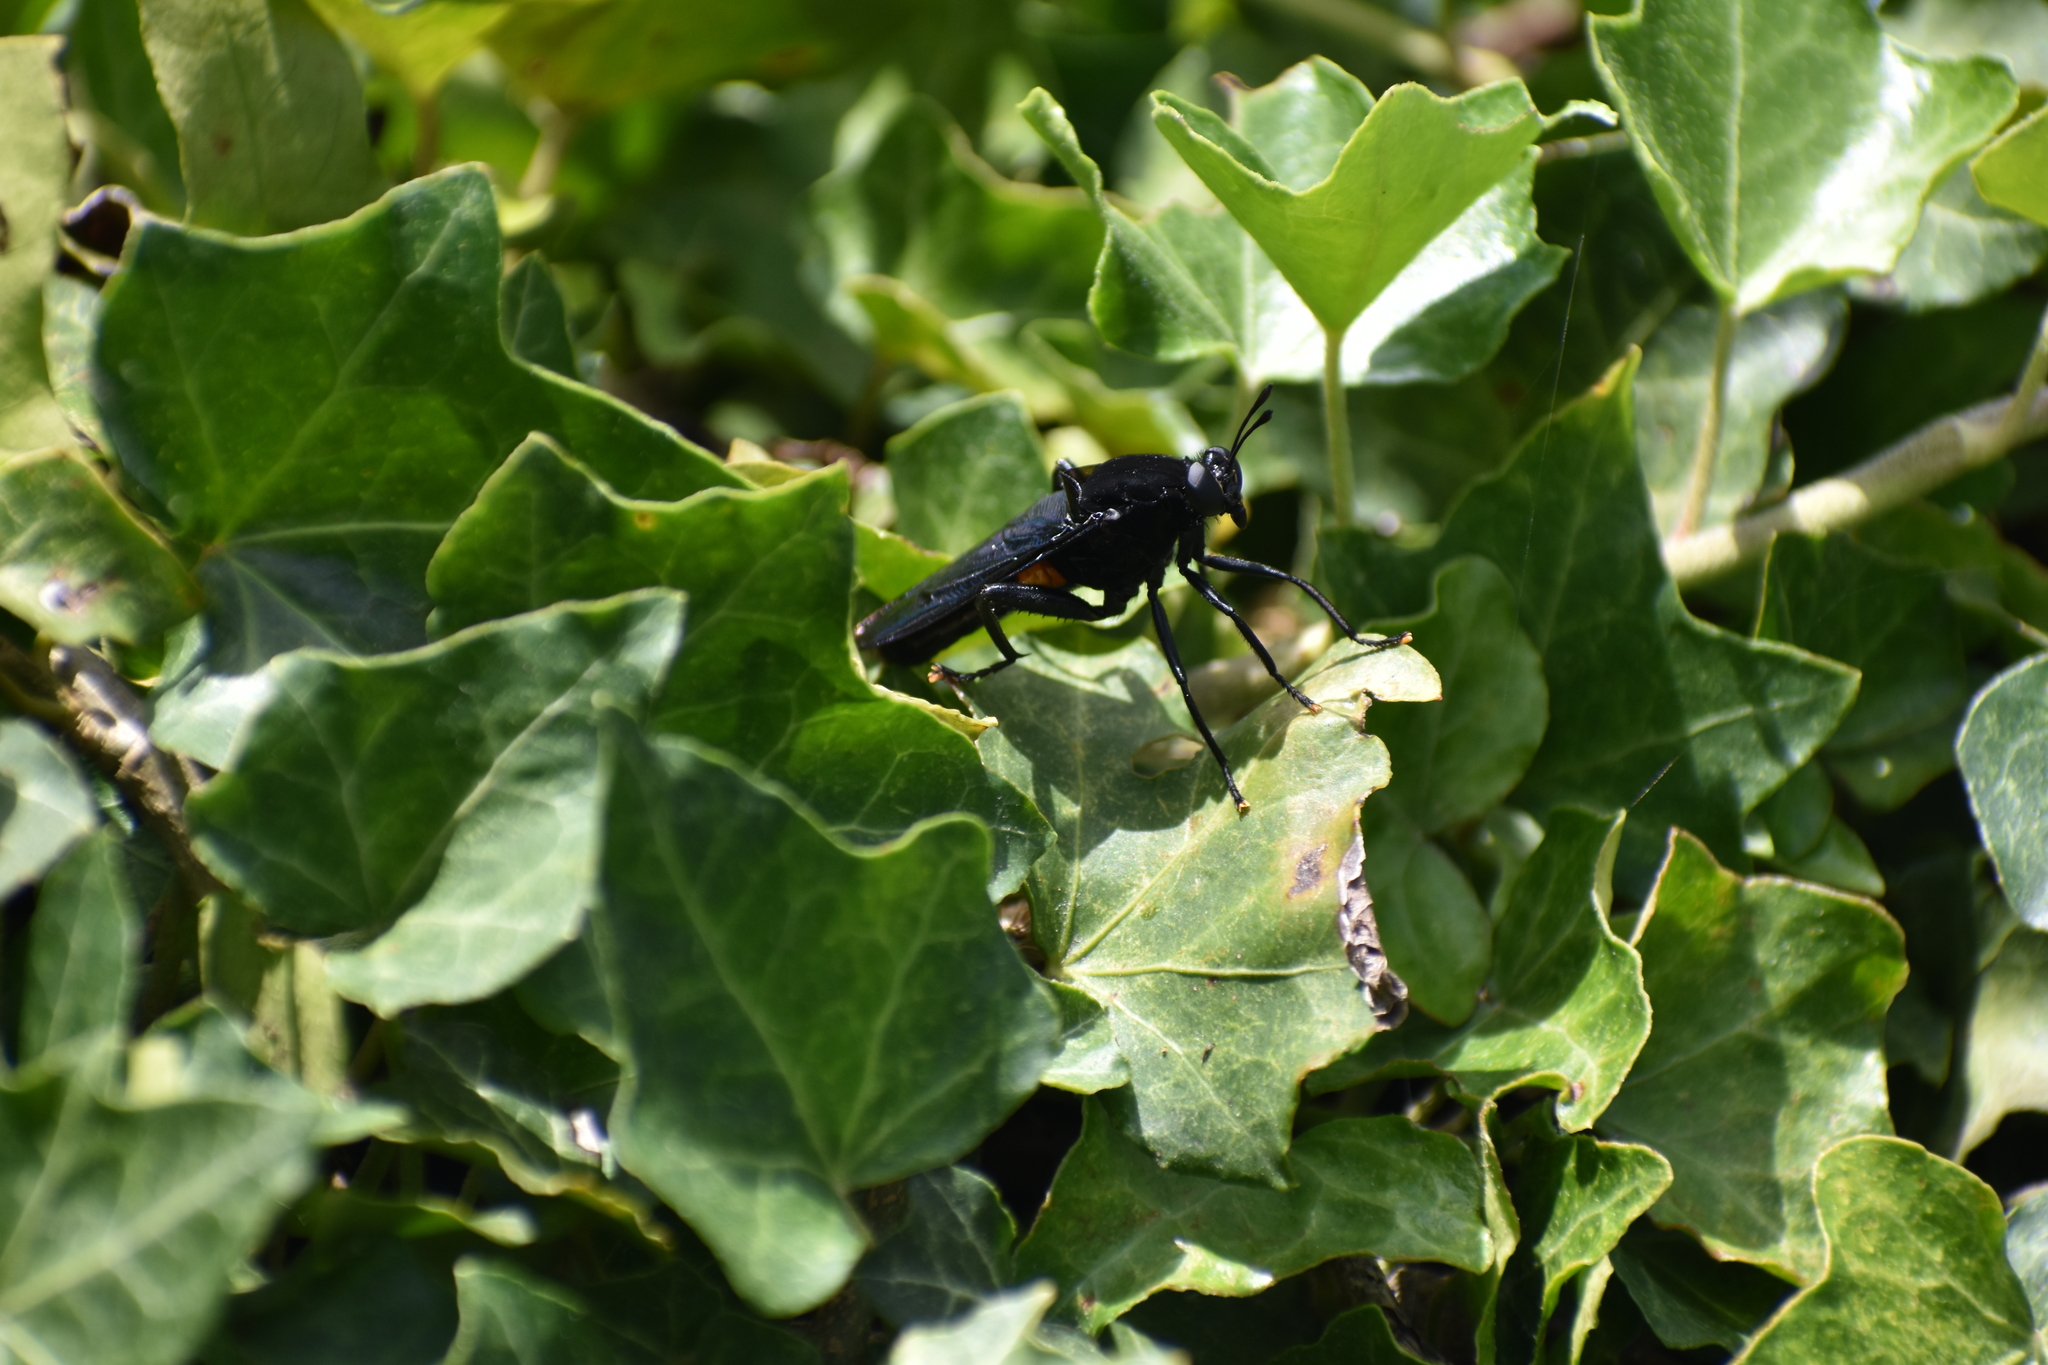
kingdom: Animalia
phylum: Arthropoda
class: Insecta
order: Diptera
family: Mydidae
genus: Mydas
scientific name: Mydas clavatus
